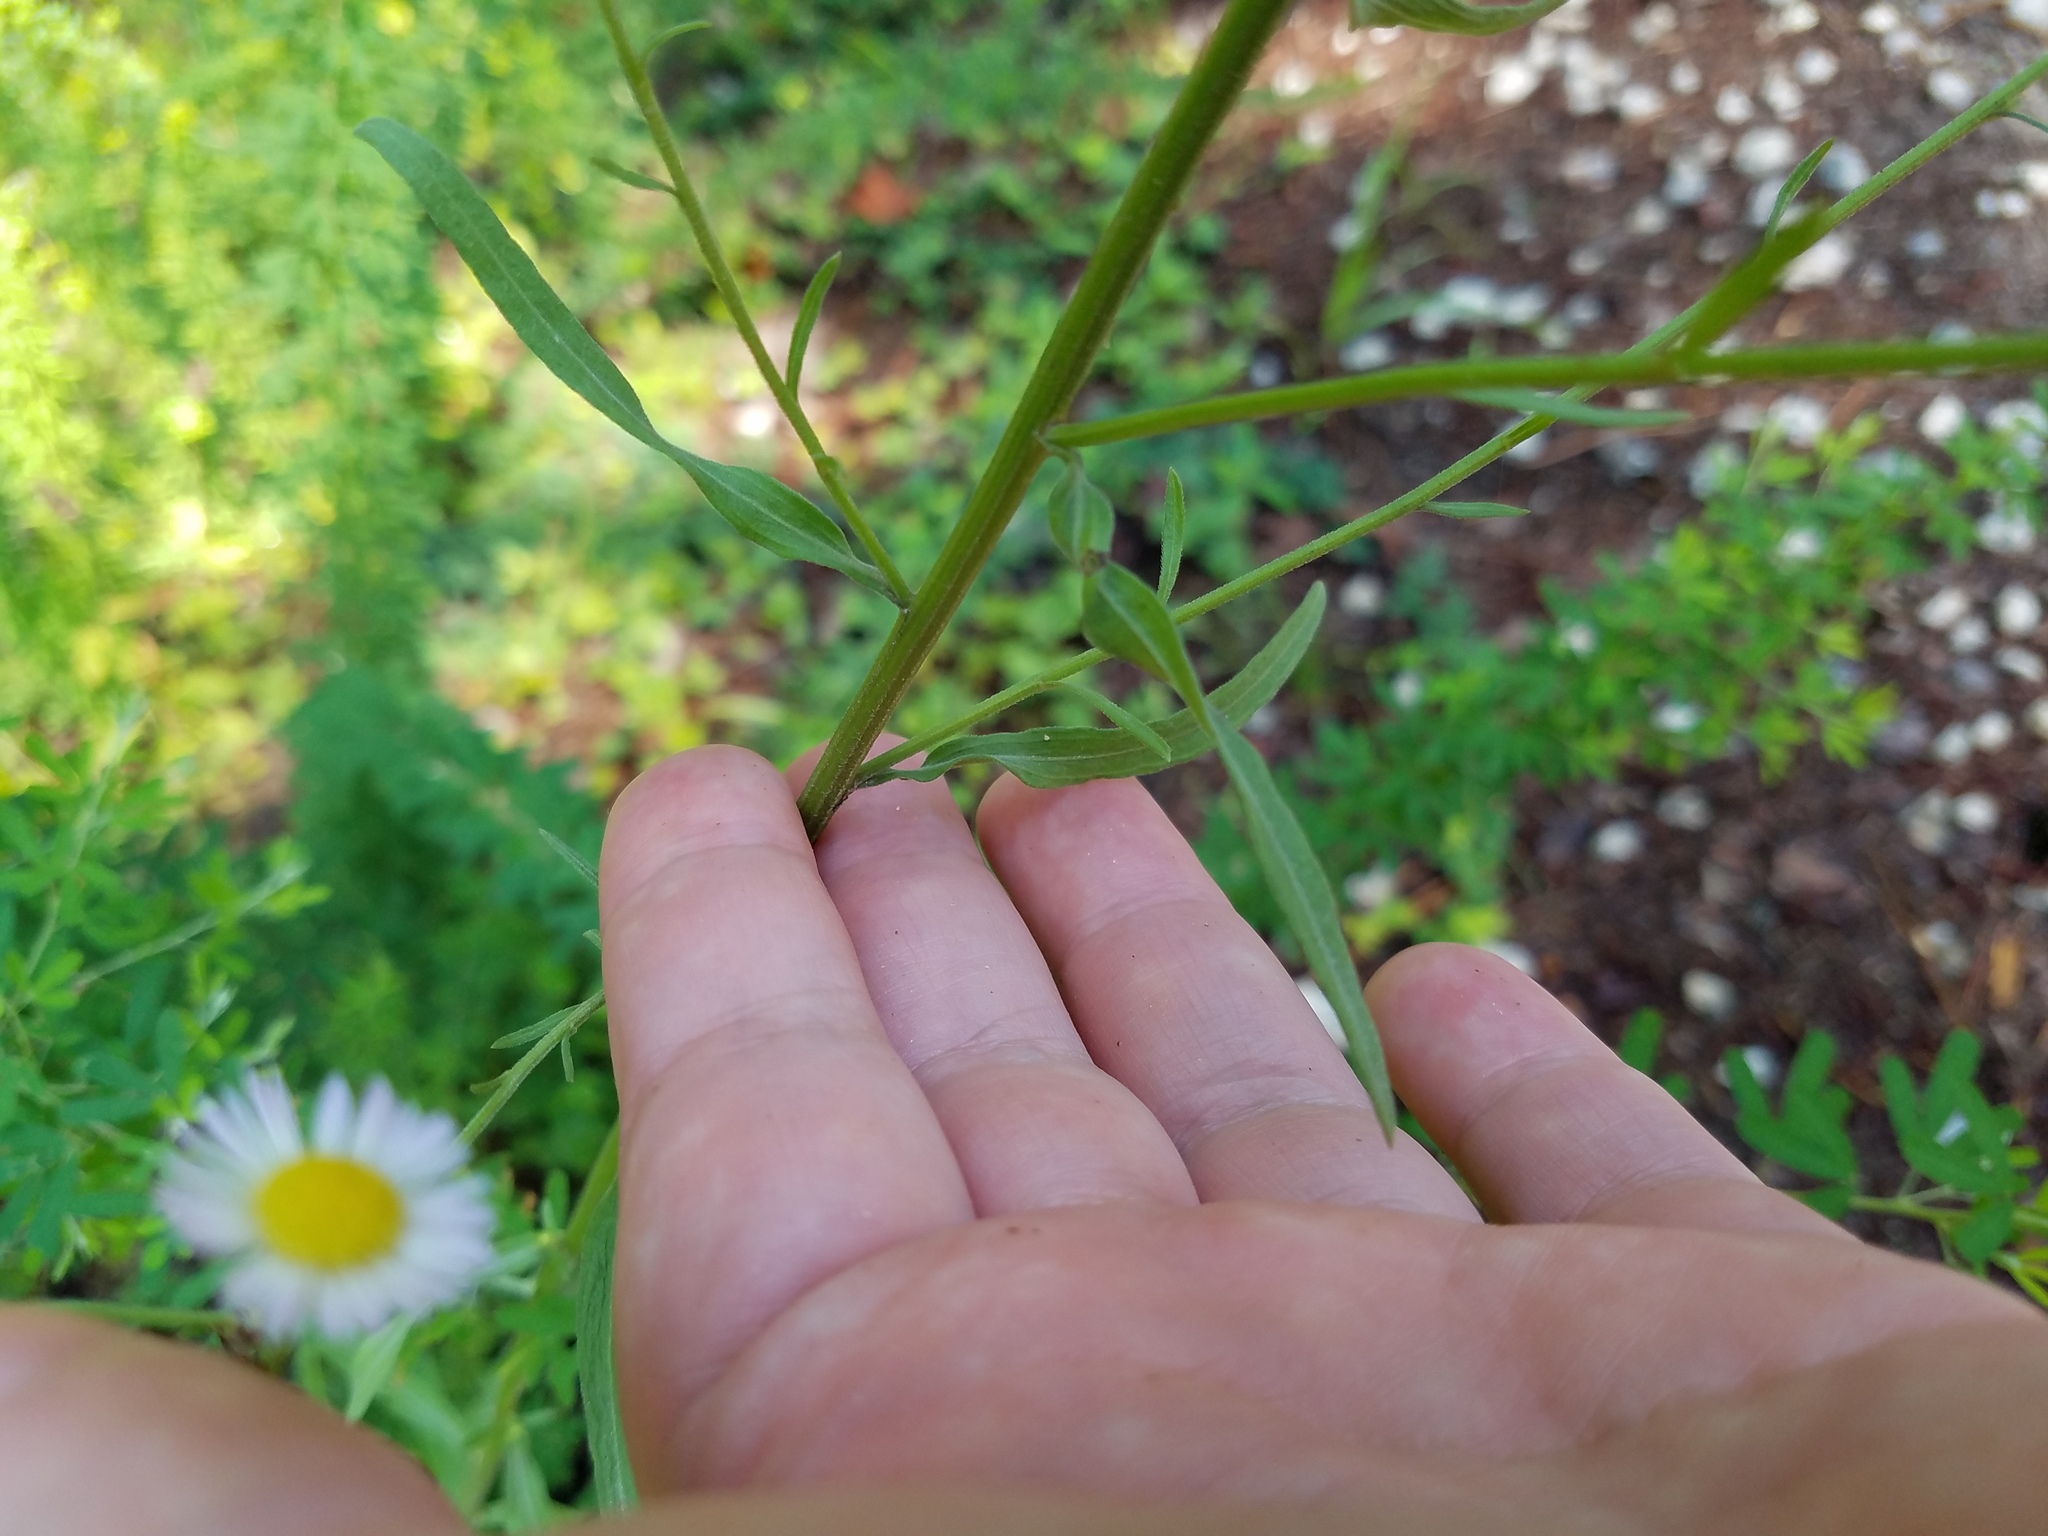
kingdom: Plantae
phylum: Tracheophyta
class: Magnoliopsida
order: Asterales
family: Asteraceae
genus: Erigeron
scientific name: Erigeron strigosus
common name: Common eastern fleabane
